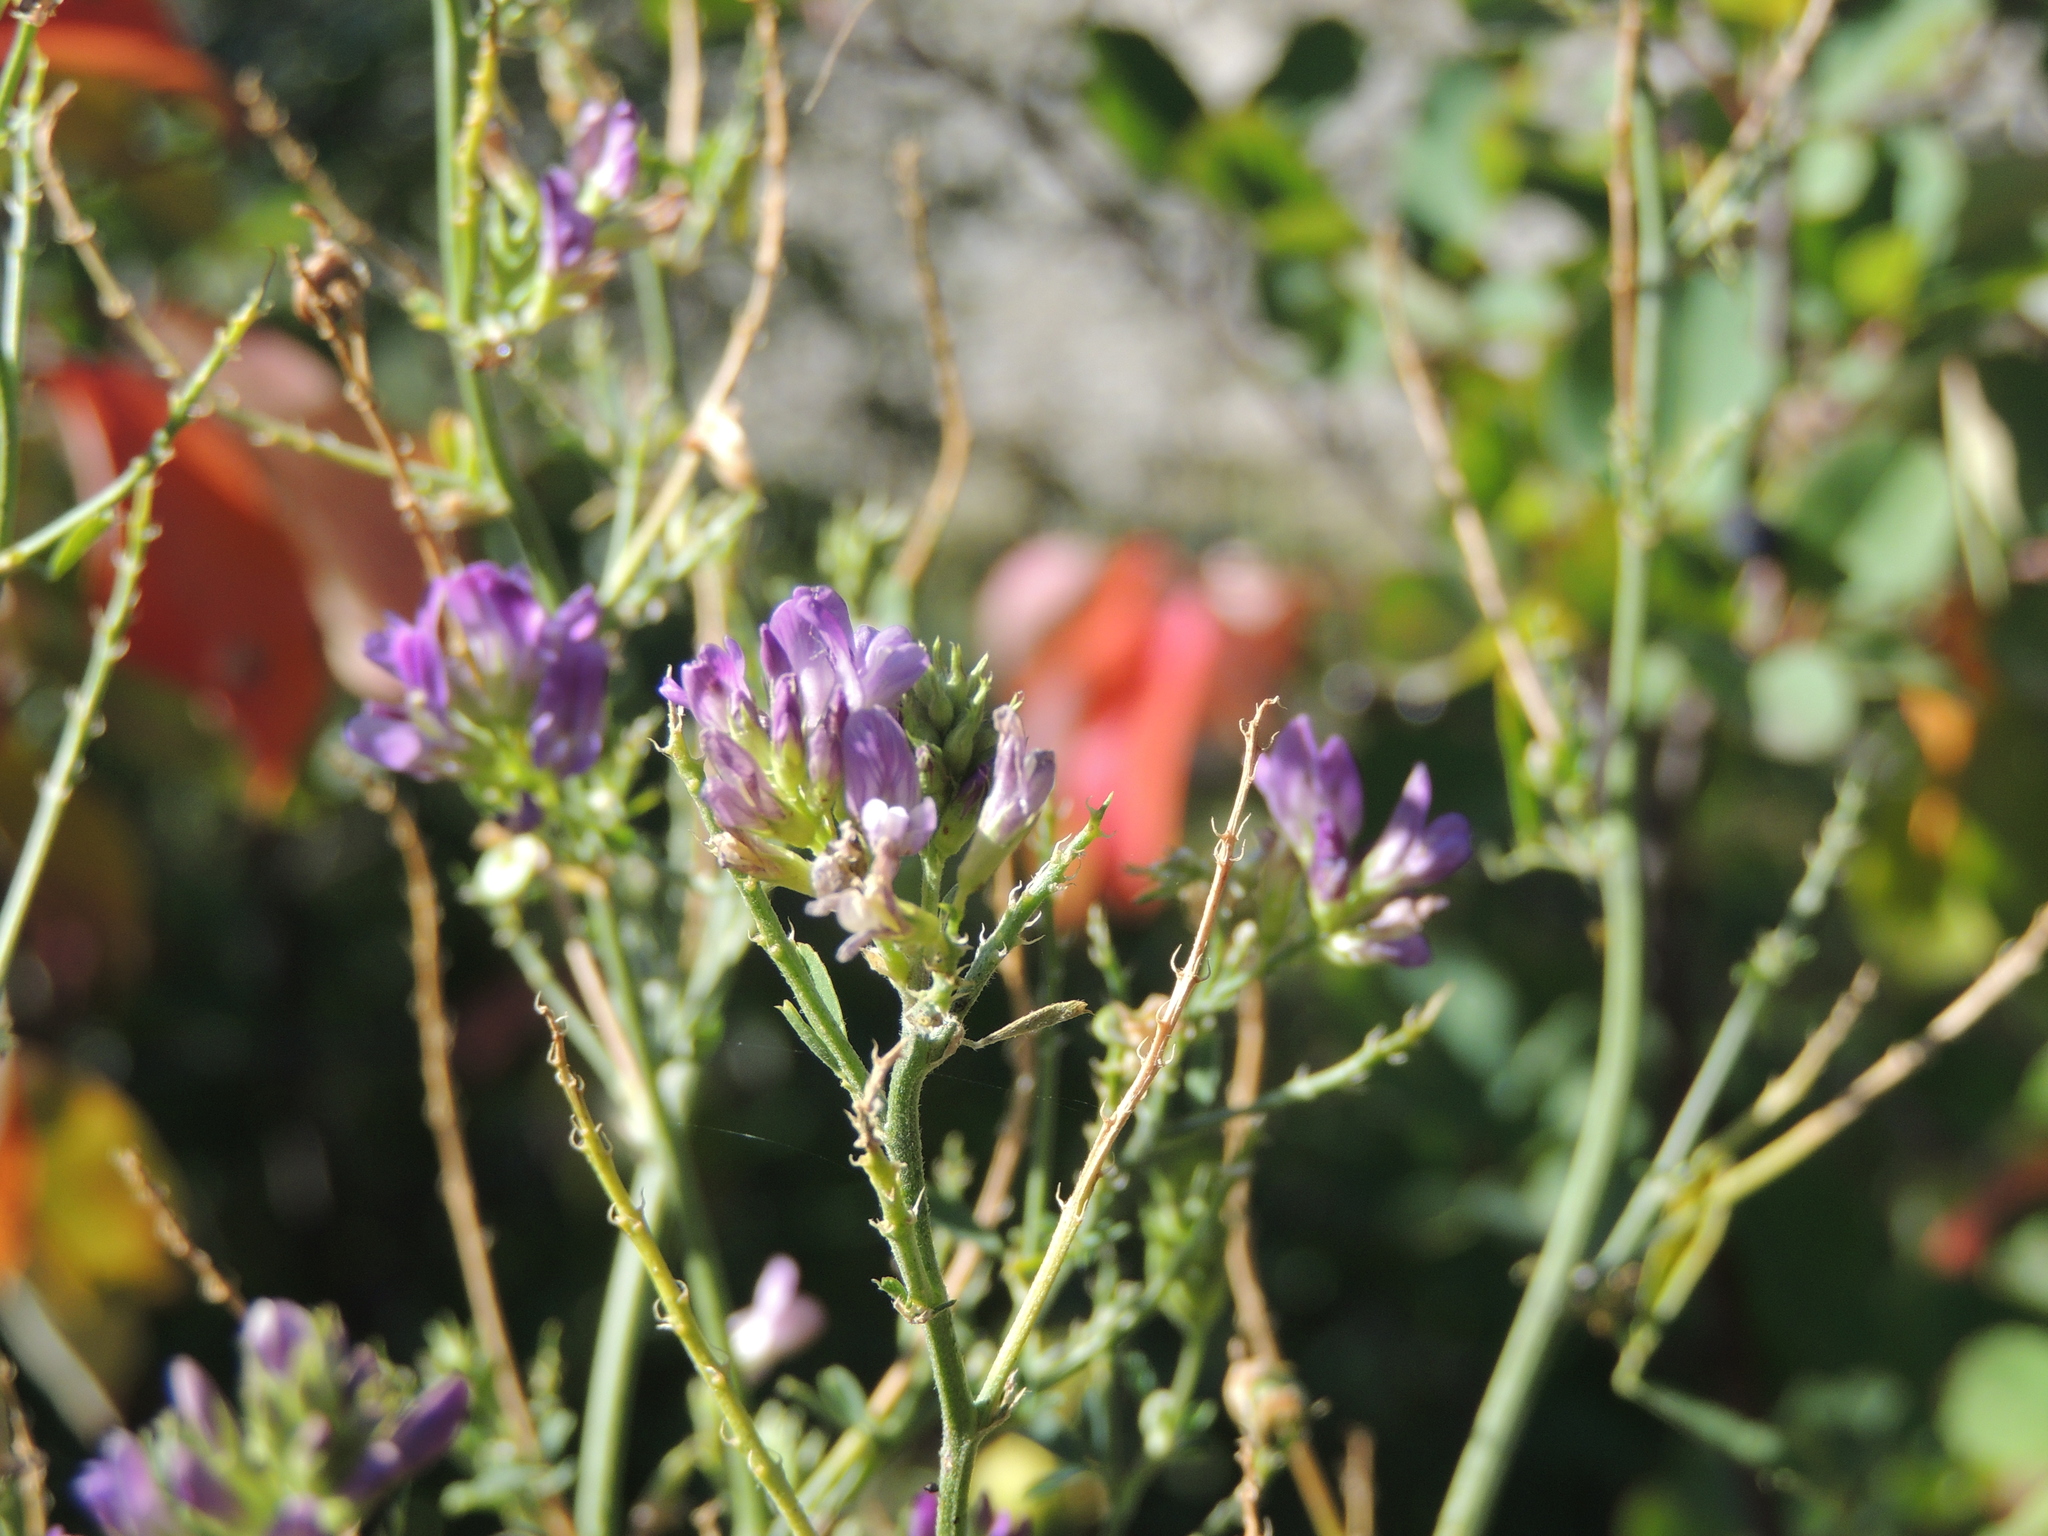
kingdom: Plantae
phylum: Tracheophyta
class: Magnoliopsida
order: Fabales
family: Fabaceae
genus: Medicago
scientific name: Medicago sativa
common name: Alfalfa
